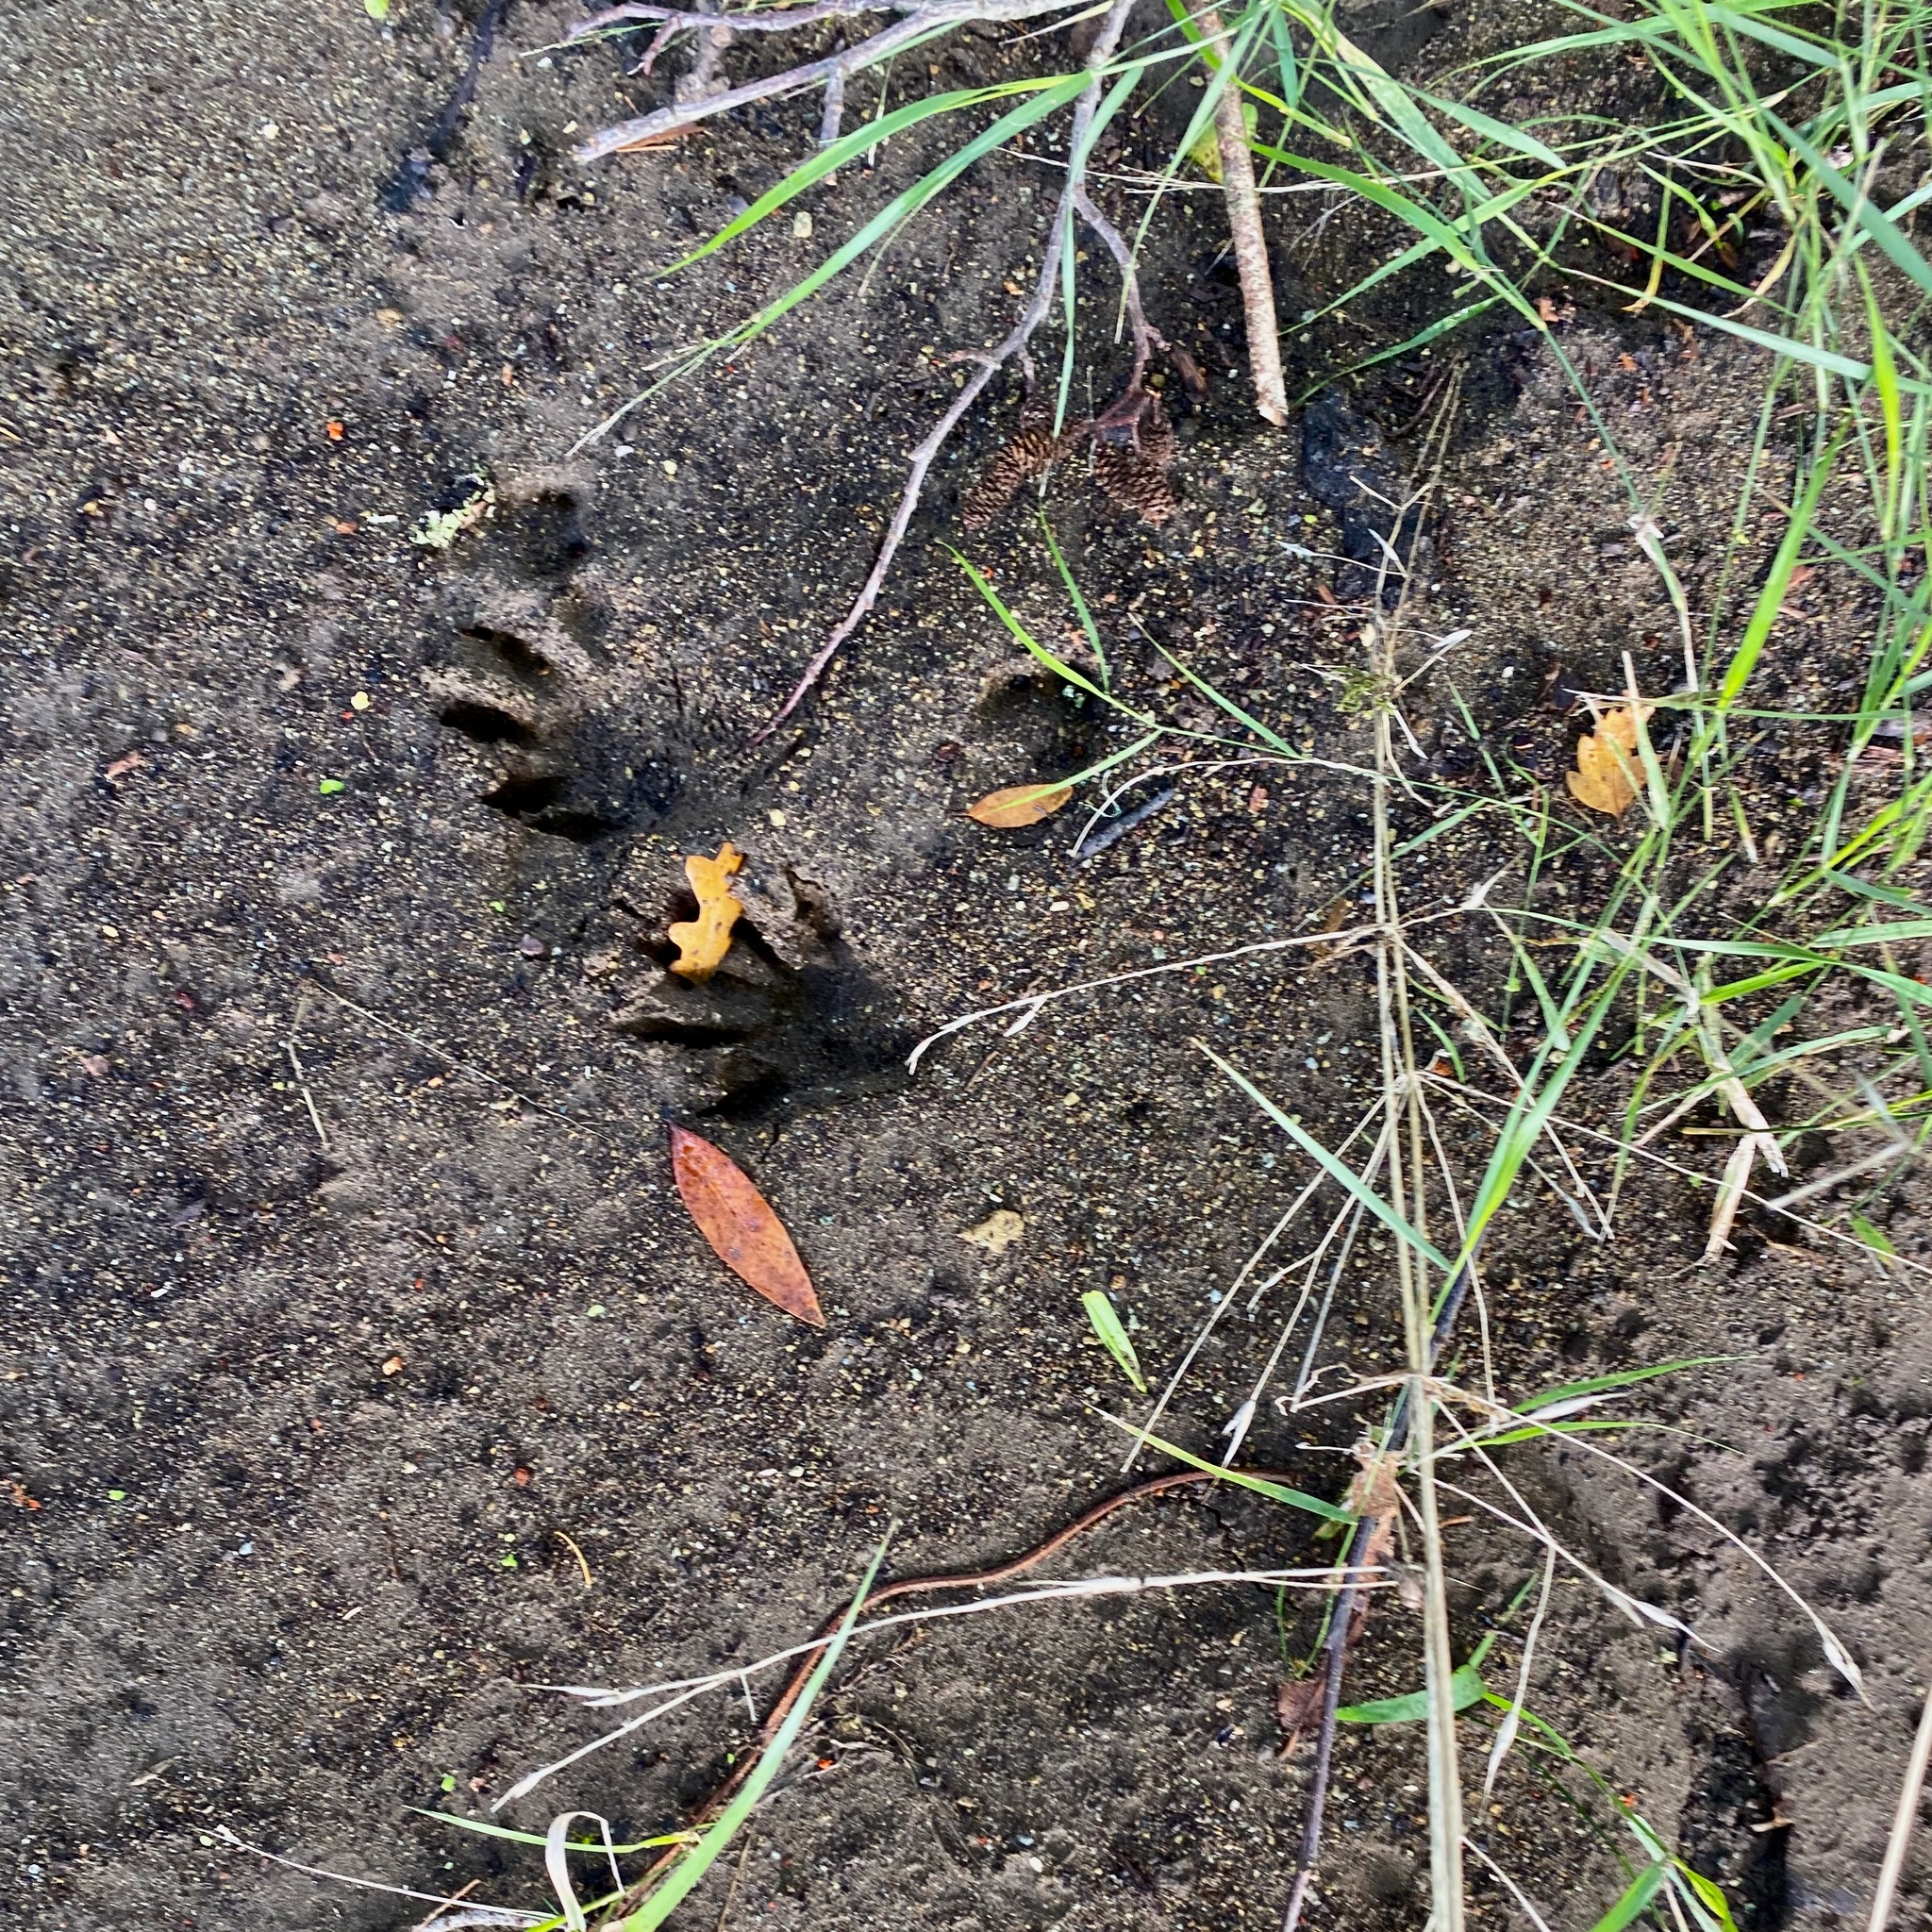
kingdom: Animalia
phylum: Chordata
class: Mammalia
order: Carnivora
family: Procyonidae
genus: Procyon
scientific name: Procyon lotor
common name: Raccoon
